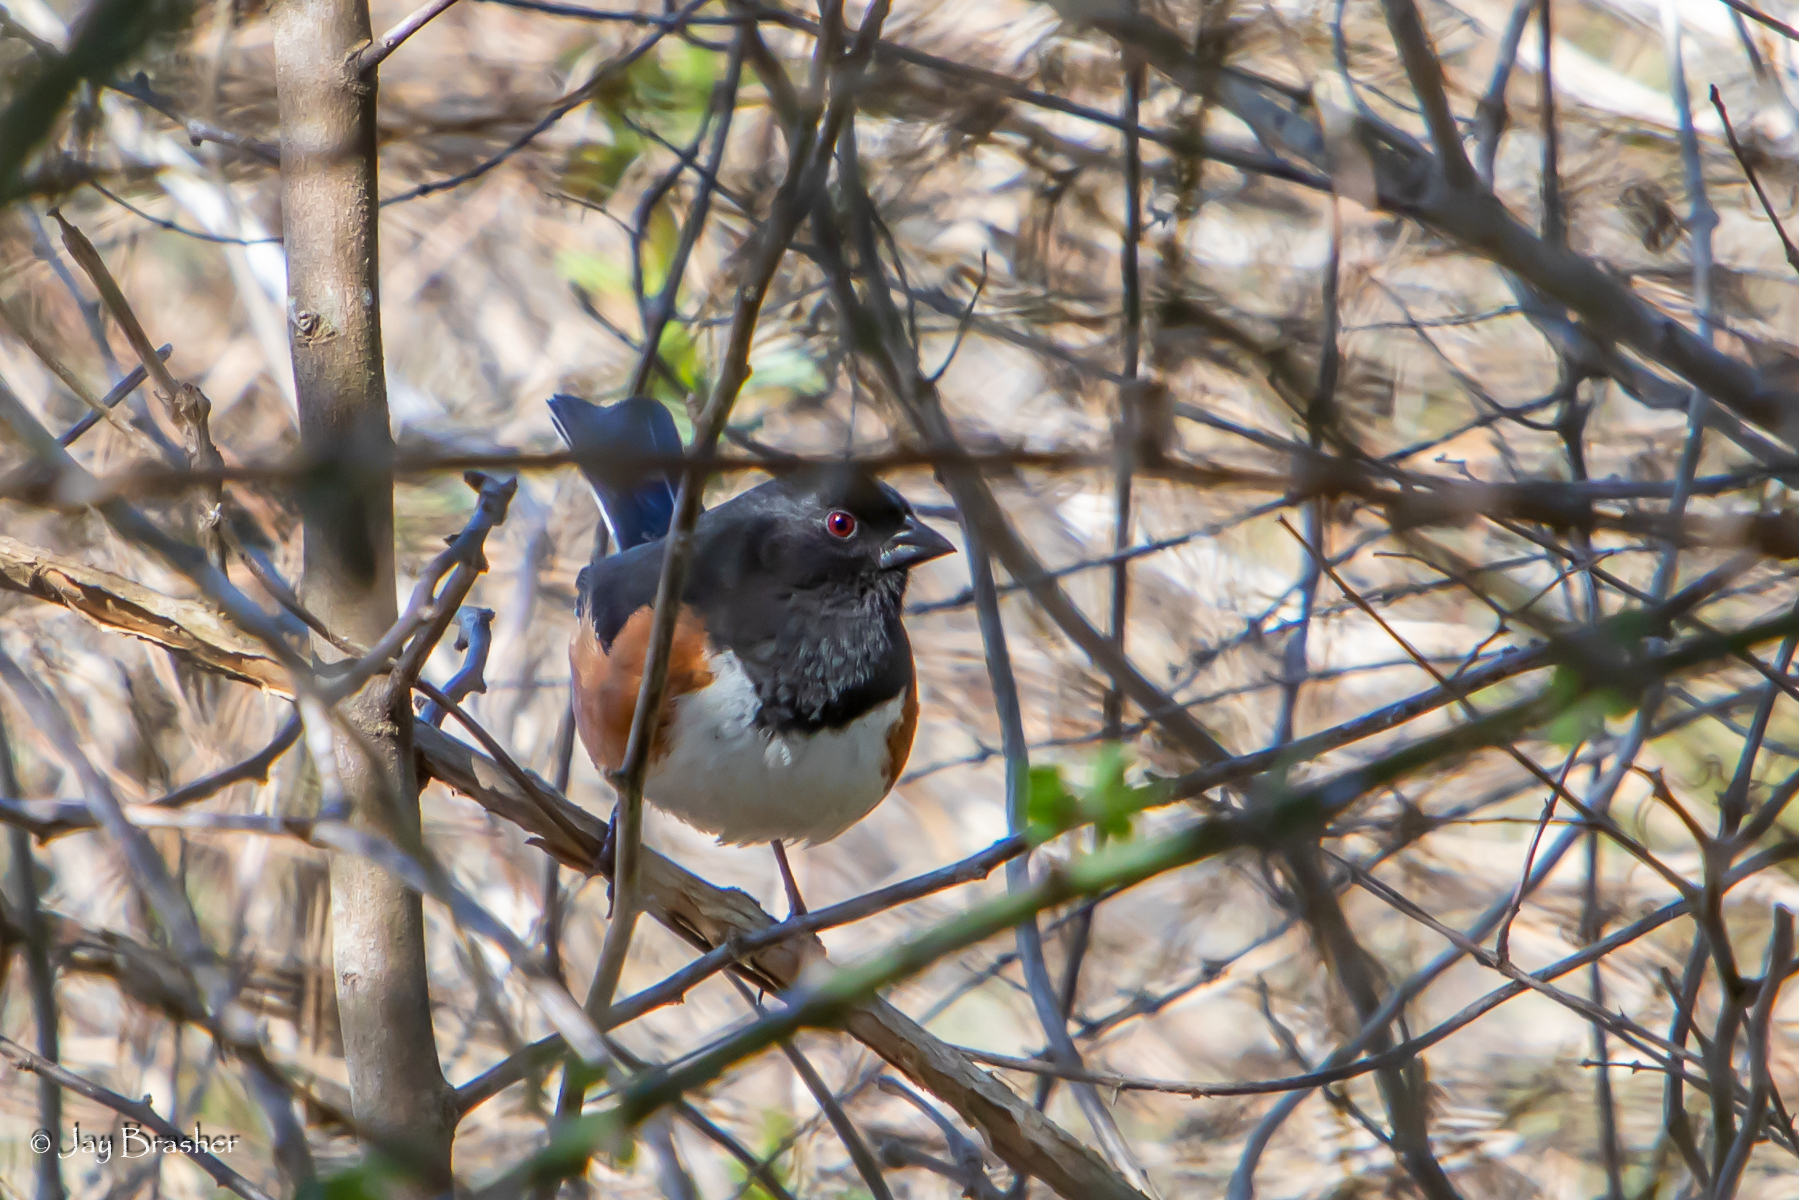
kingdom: Animalia
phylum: Chordata
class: Aves
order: Passeriformes
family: Passerellidae
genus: Pipilo
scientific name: Pipilo erythrophthalmus
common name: Eastern towhee
